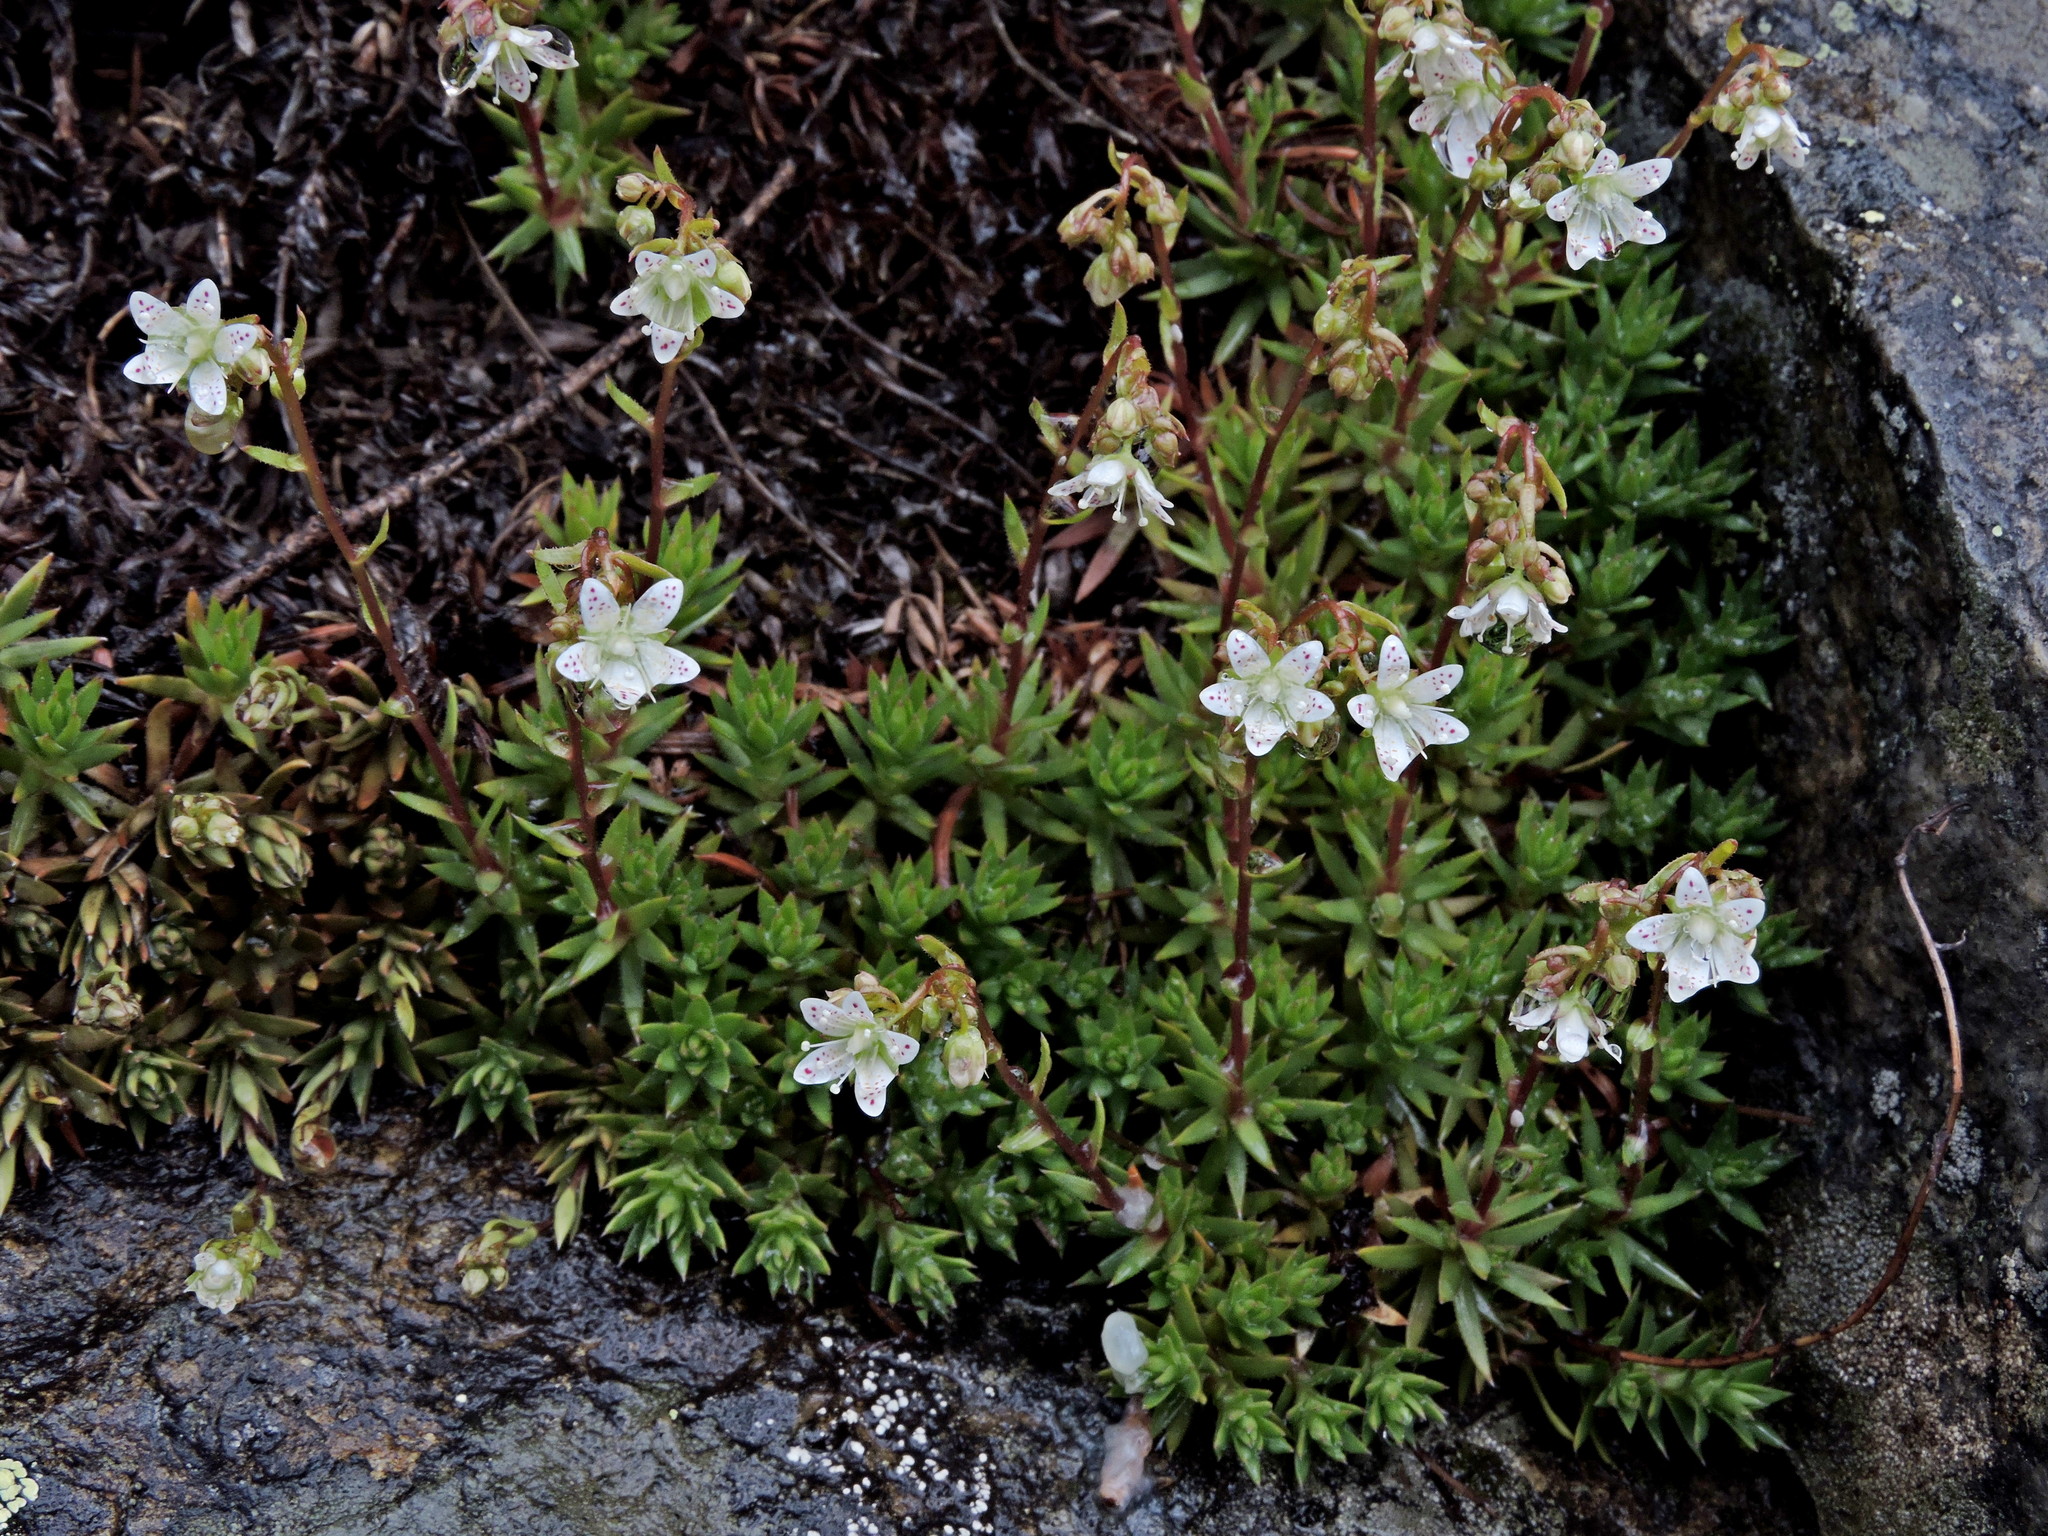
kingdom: Plantae
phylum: Tracheophyta
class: Magnoliopsida
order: Saxifragales
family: Saxifragaceae
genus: Saxifraga
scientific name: Saxifraga bronchialis
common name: Matted saxifrage
